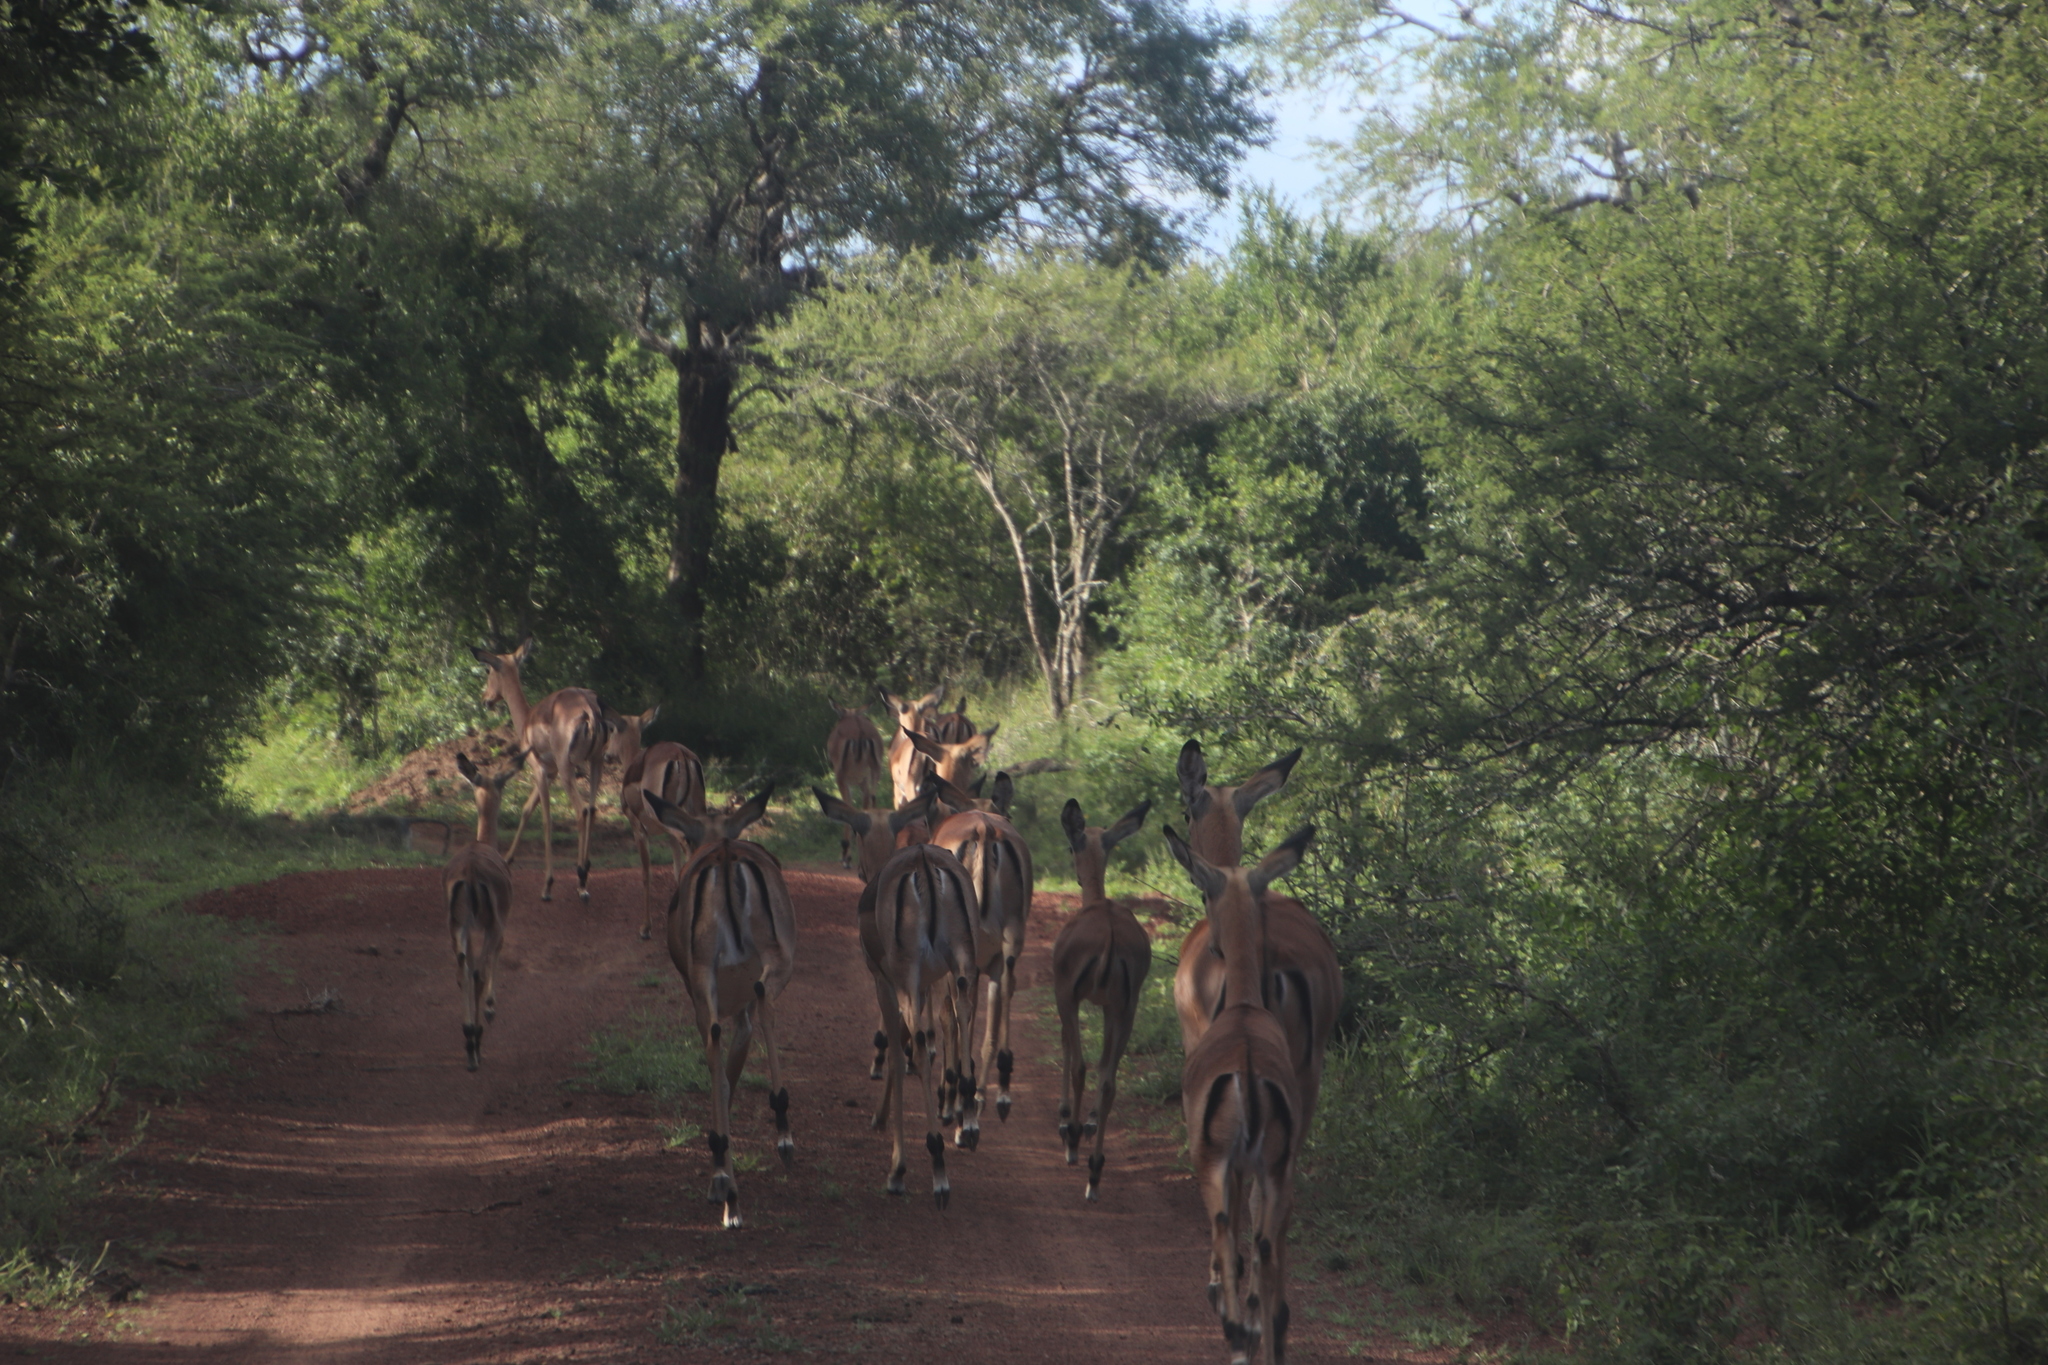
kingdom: Animalia
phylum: Chordata
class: Mammalia
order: Artiodactyla
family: Bovidae
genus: Aepyceros
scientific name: Aepyceros melampus
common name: Impala
